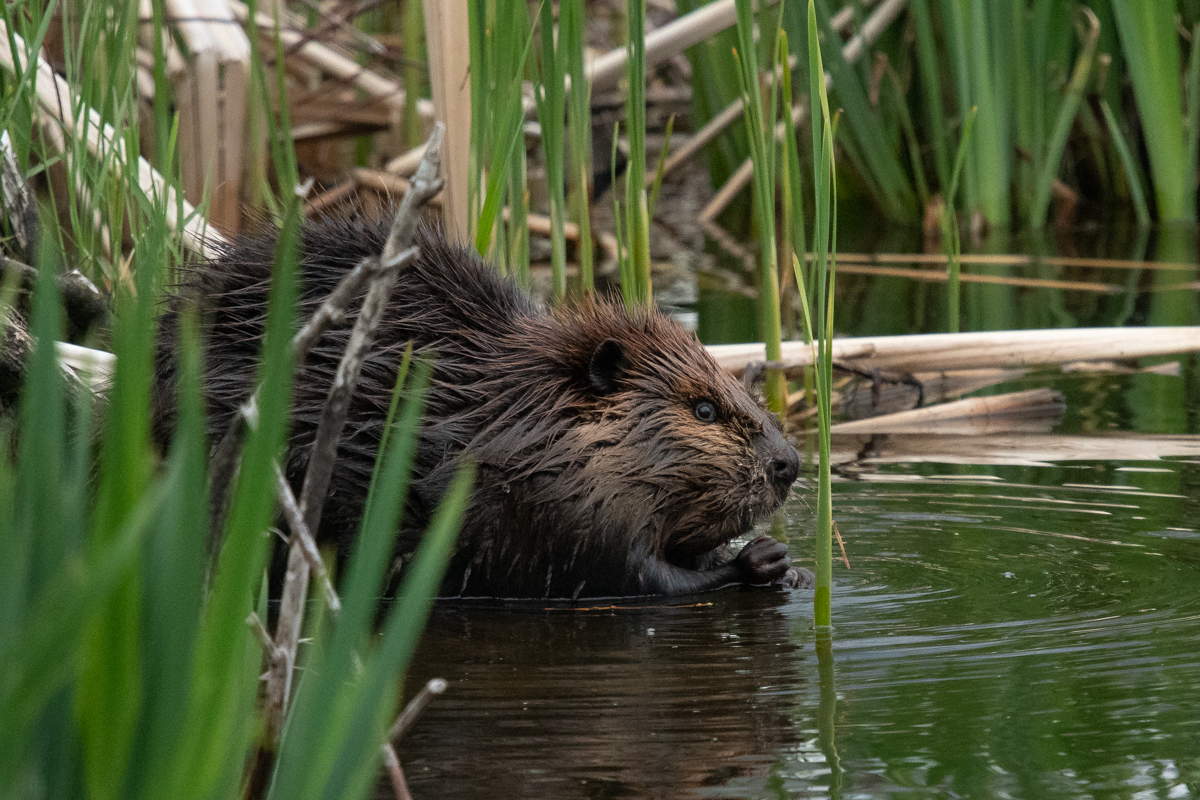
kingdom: Animalia
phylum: Chordata
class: Mammalia
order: Rodentia
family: Castoridae
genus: Castor
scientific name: Castor canadensis
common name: American beaver
